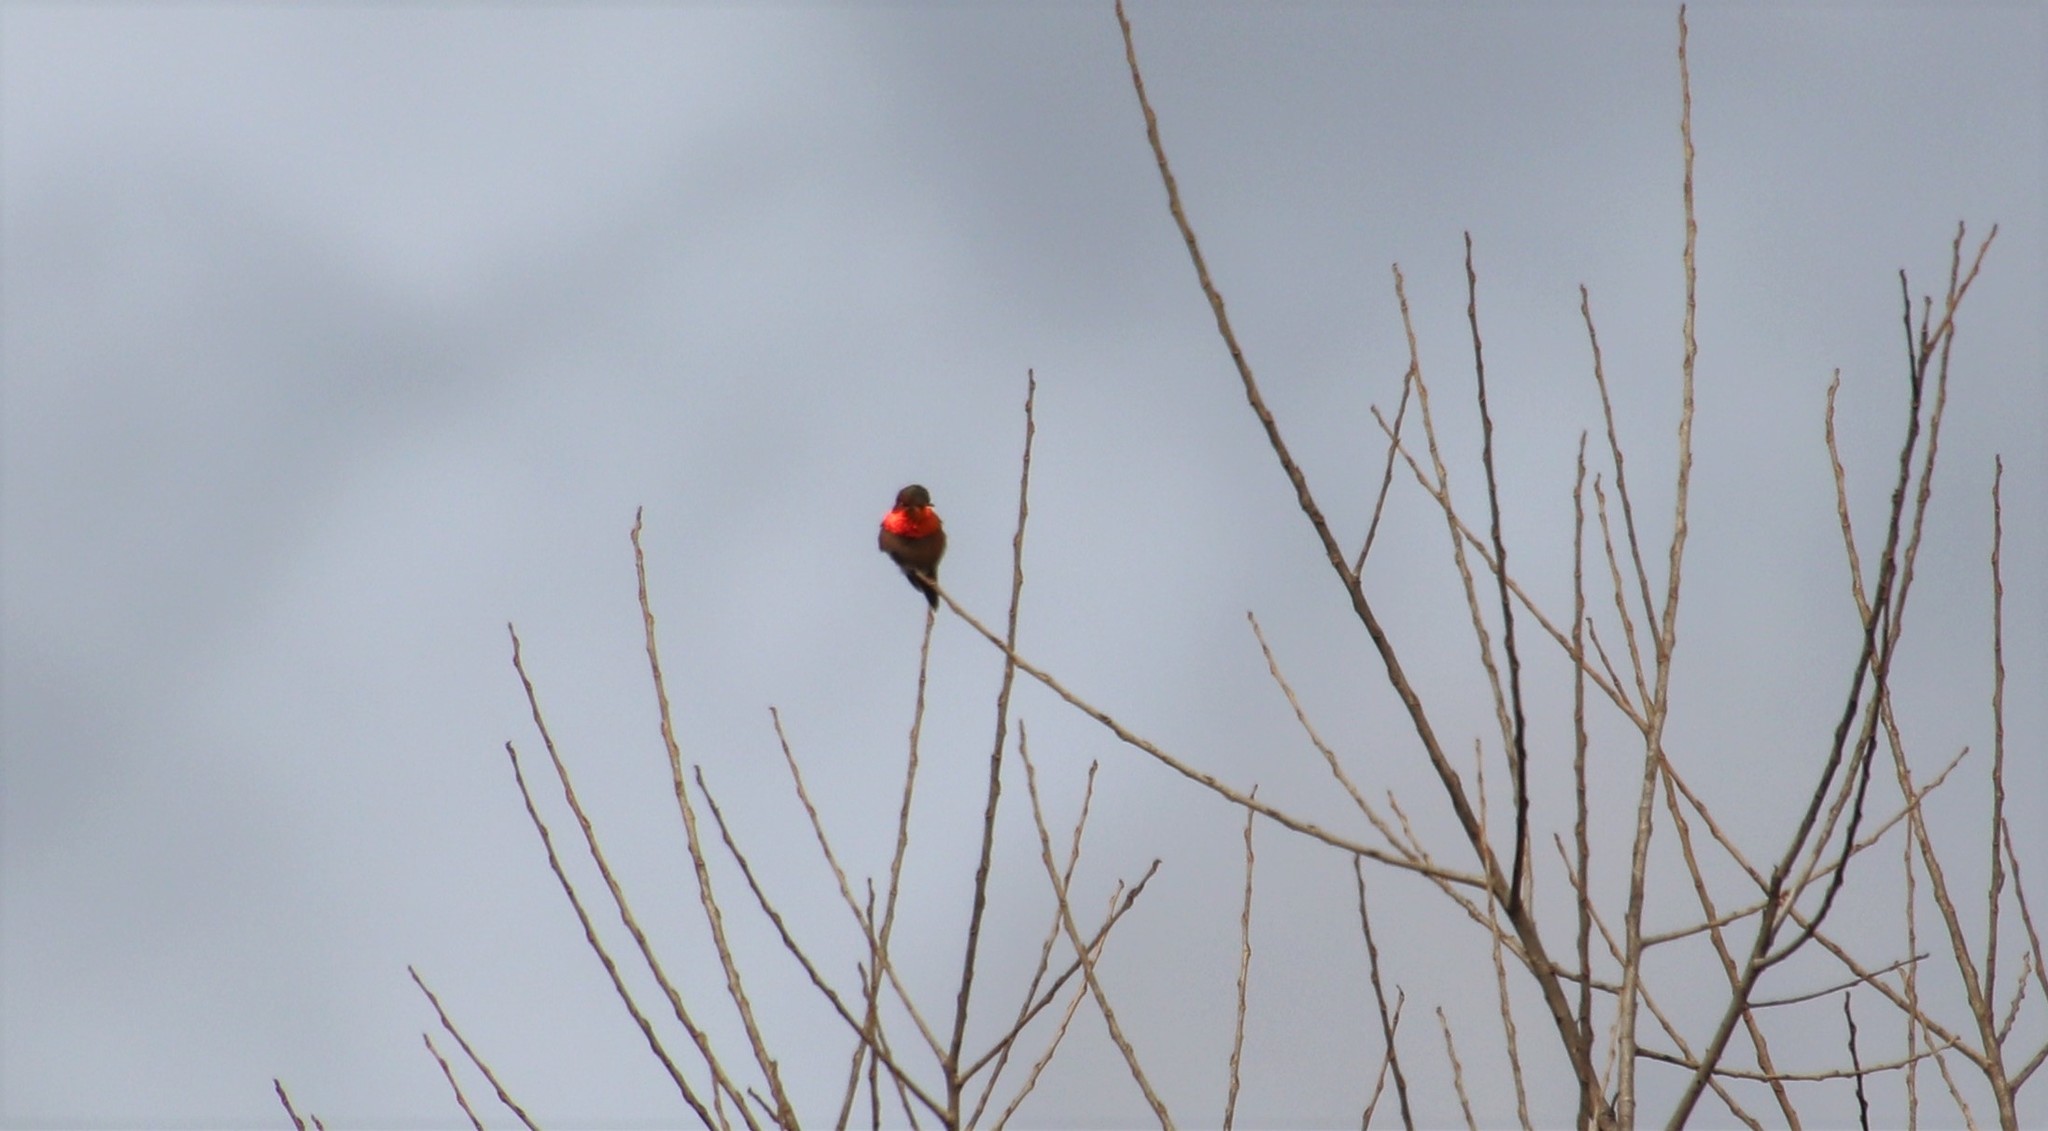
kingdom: Animalia
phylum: Chordata
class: Aves
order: Apodiformes
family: Trochilidae
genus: Selasphorus
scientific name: Selasphorus
